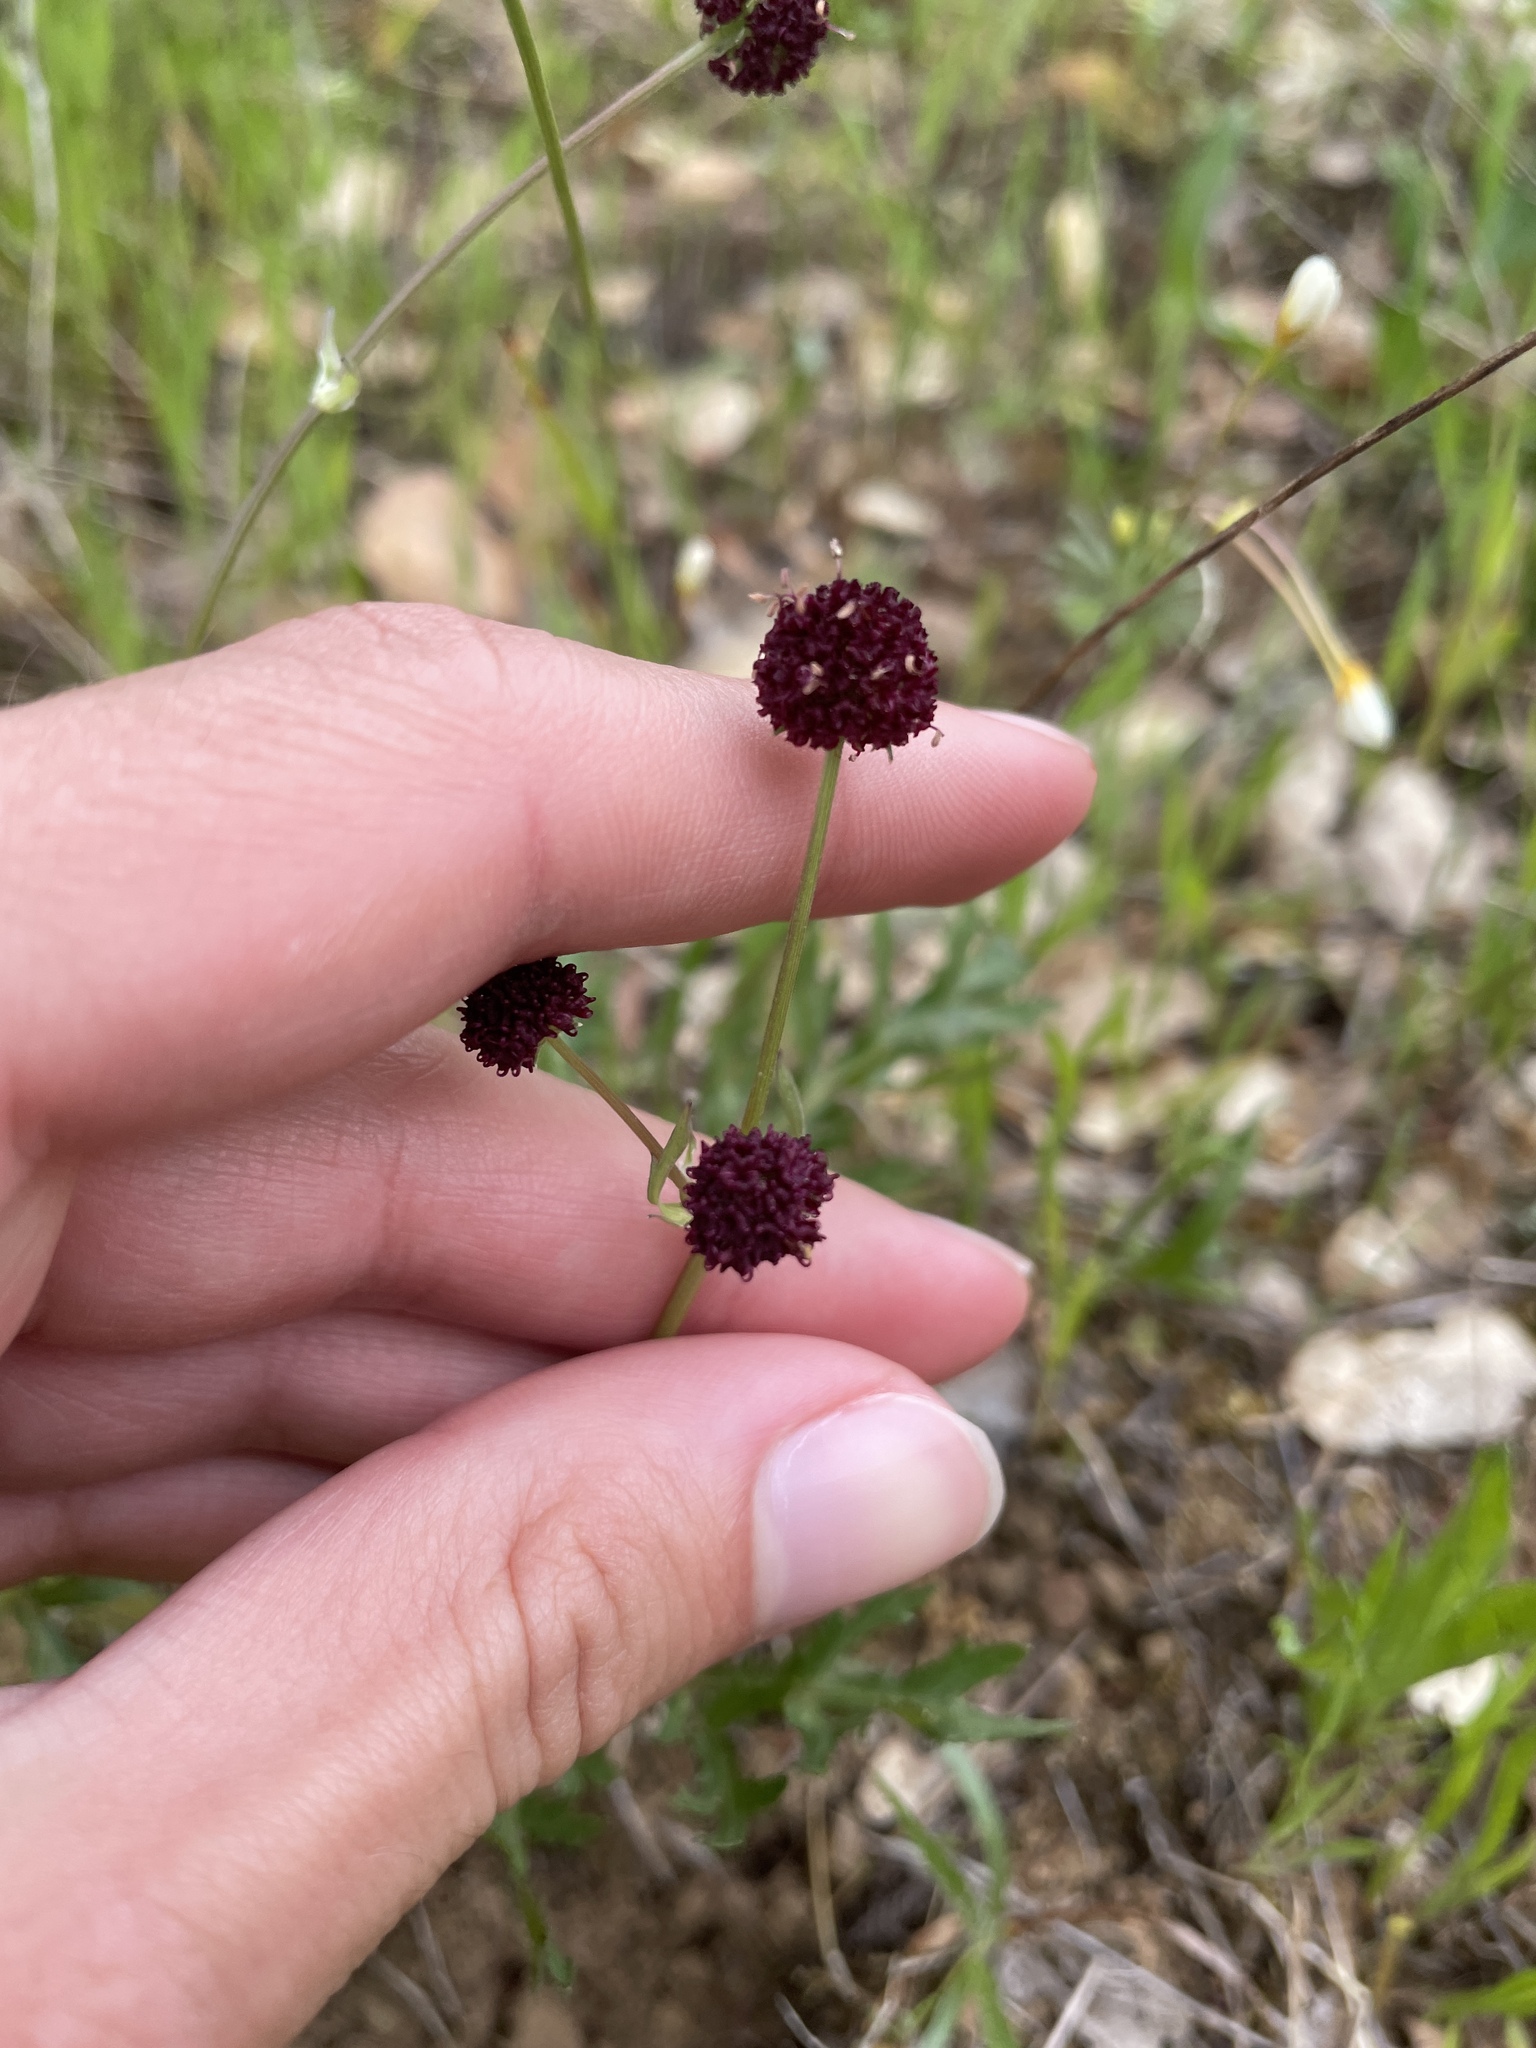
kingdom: Plantae
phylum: Tracheophyta
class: Magnoliopsida
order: Apiales
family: Apiaceae
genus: Sanicula
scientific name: Sanicula bipinnatifida
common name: Shoe-buttons
